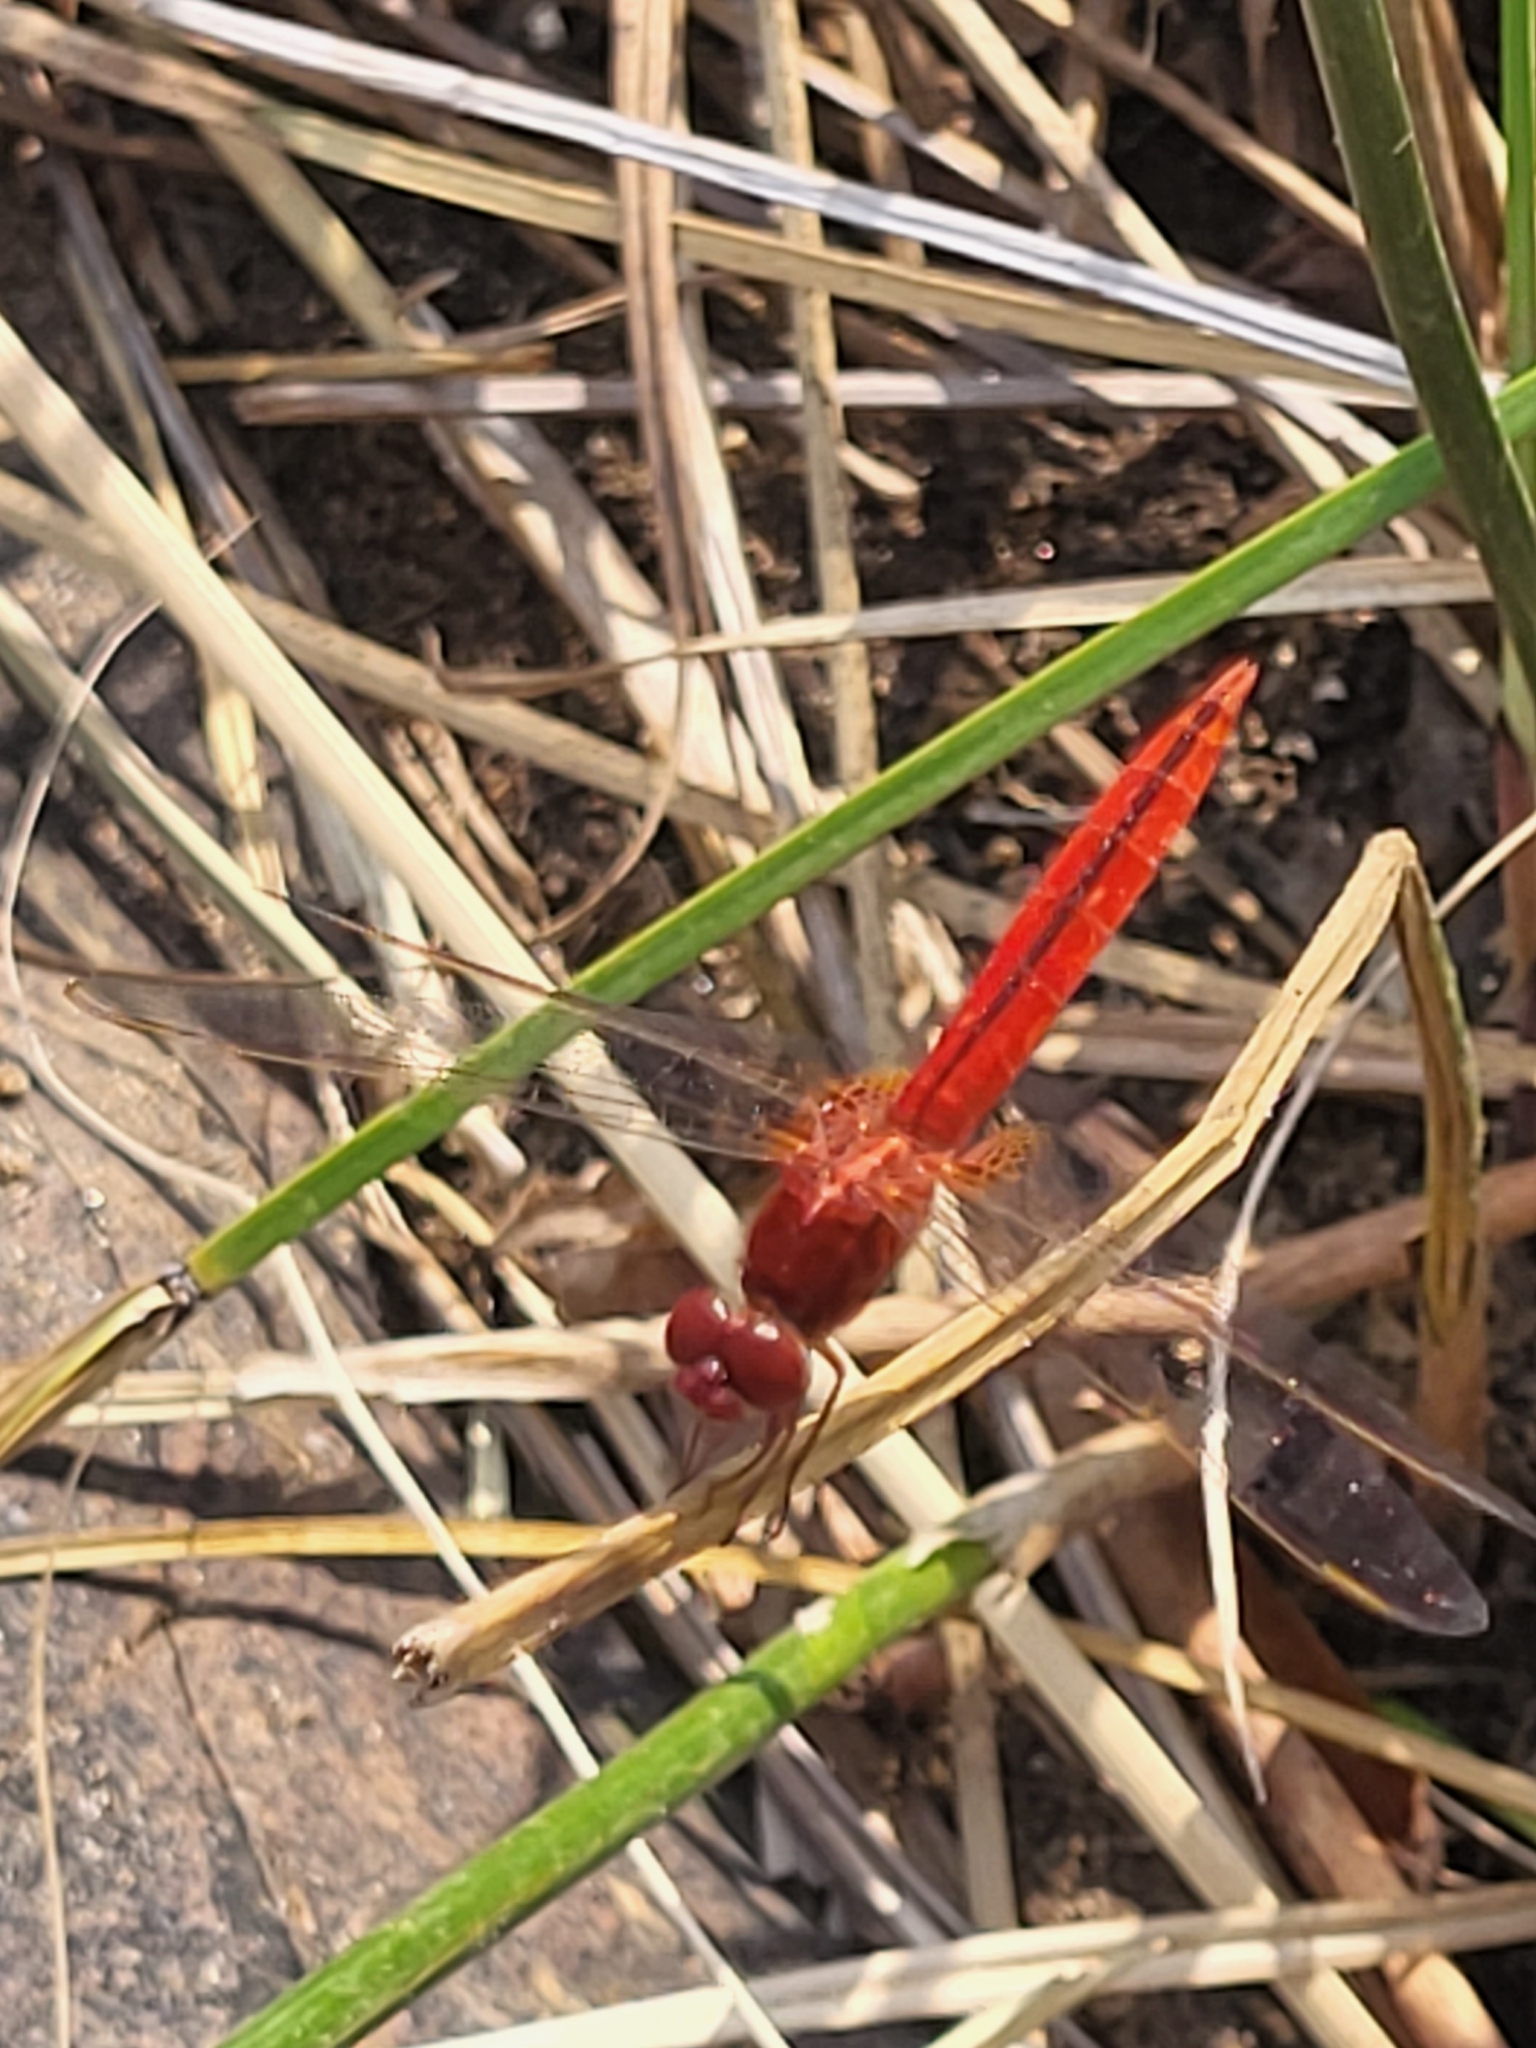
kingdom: Animalia
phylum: Arthropoda
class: Insecta
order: Odonata
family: Libellulidae
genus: Crocothemis
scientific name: Crocothemis servilia
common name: Scarlet skimmer
